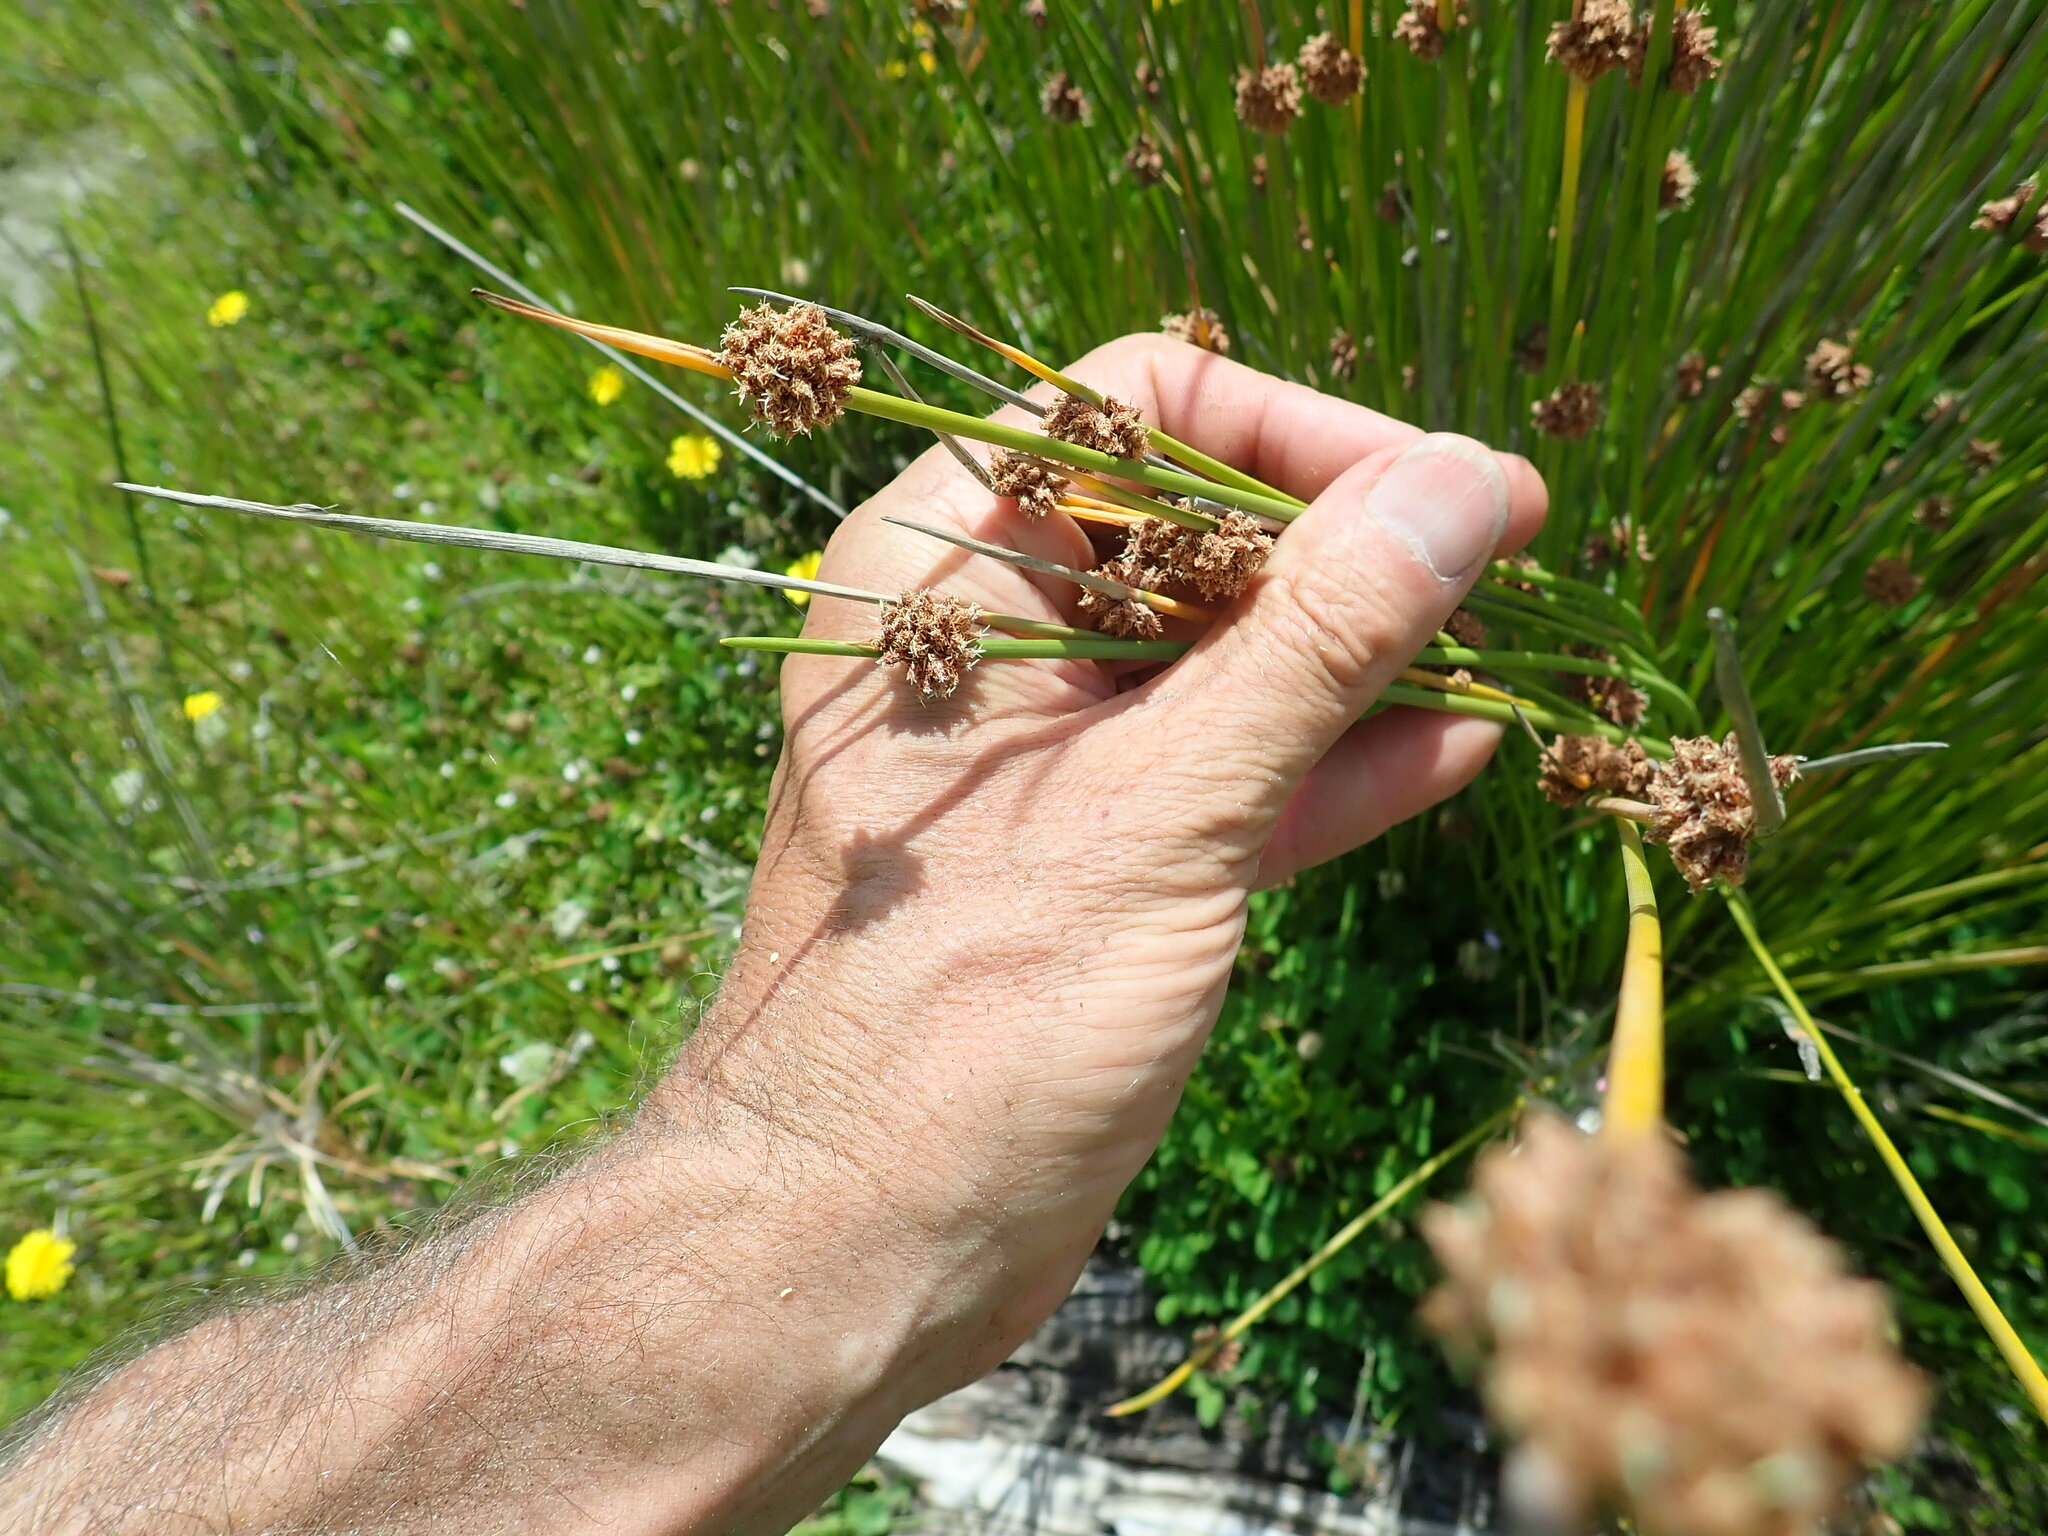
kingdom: Plantae
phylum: Tracheophyta
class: Liliopsida
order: Poales
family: Cyperaceae
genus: Ficinia
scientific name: Ficinia nodosa
